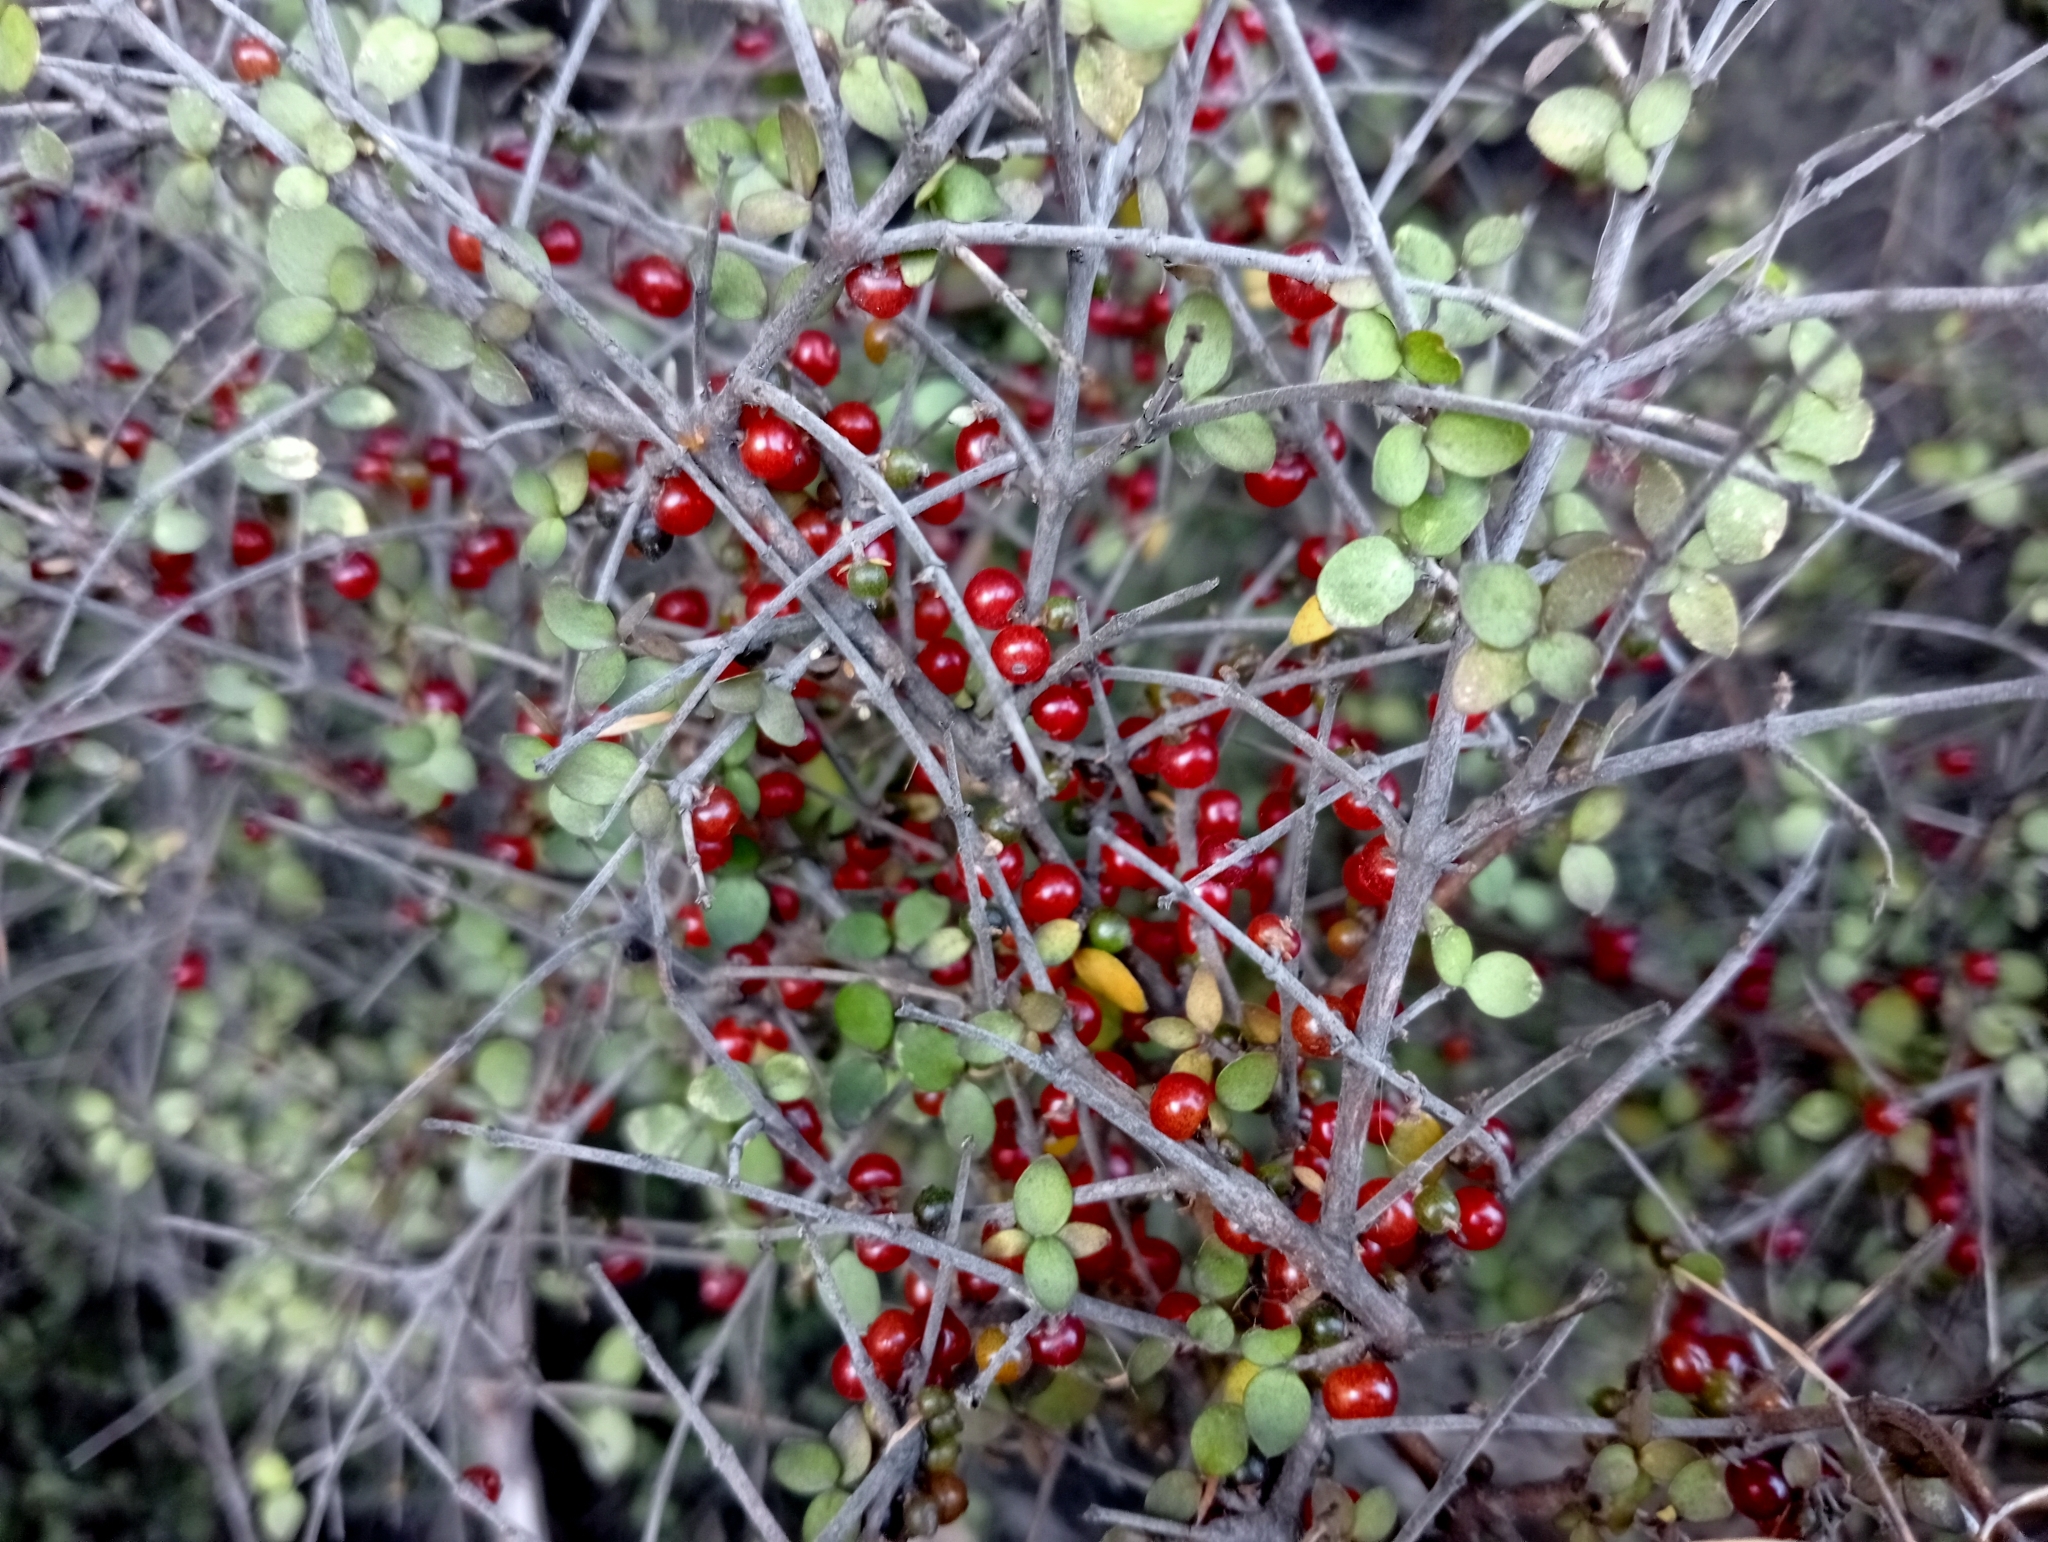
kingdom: Plantae
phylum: Tracheophyta
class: Magnoliopsida
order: Gentianales
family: Rubiaceae
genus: Coprosma
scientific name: Coprosma rhamnoides
